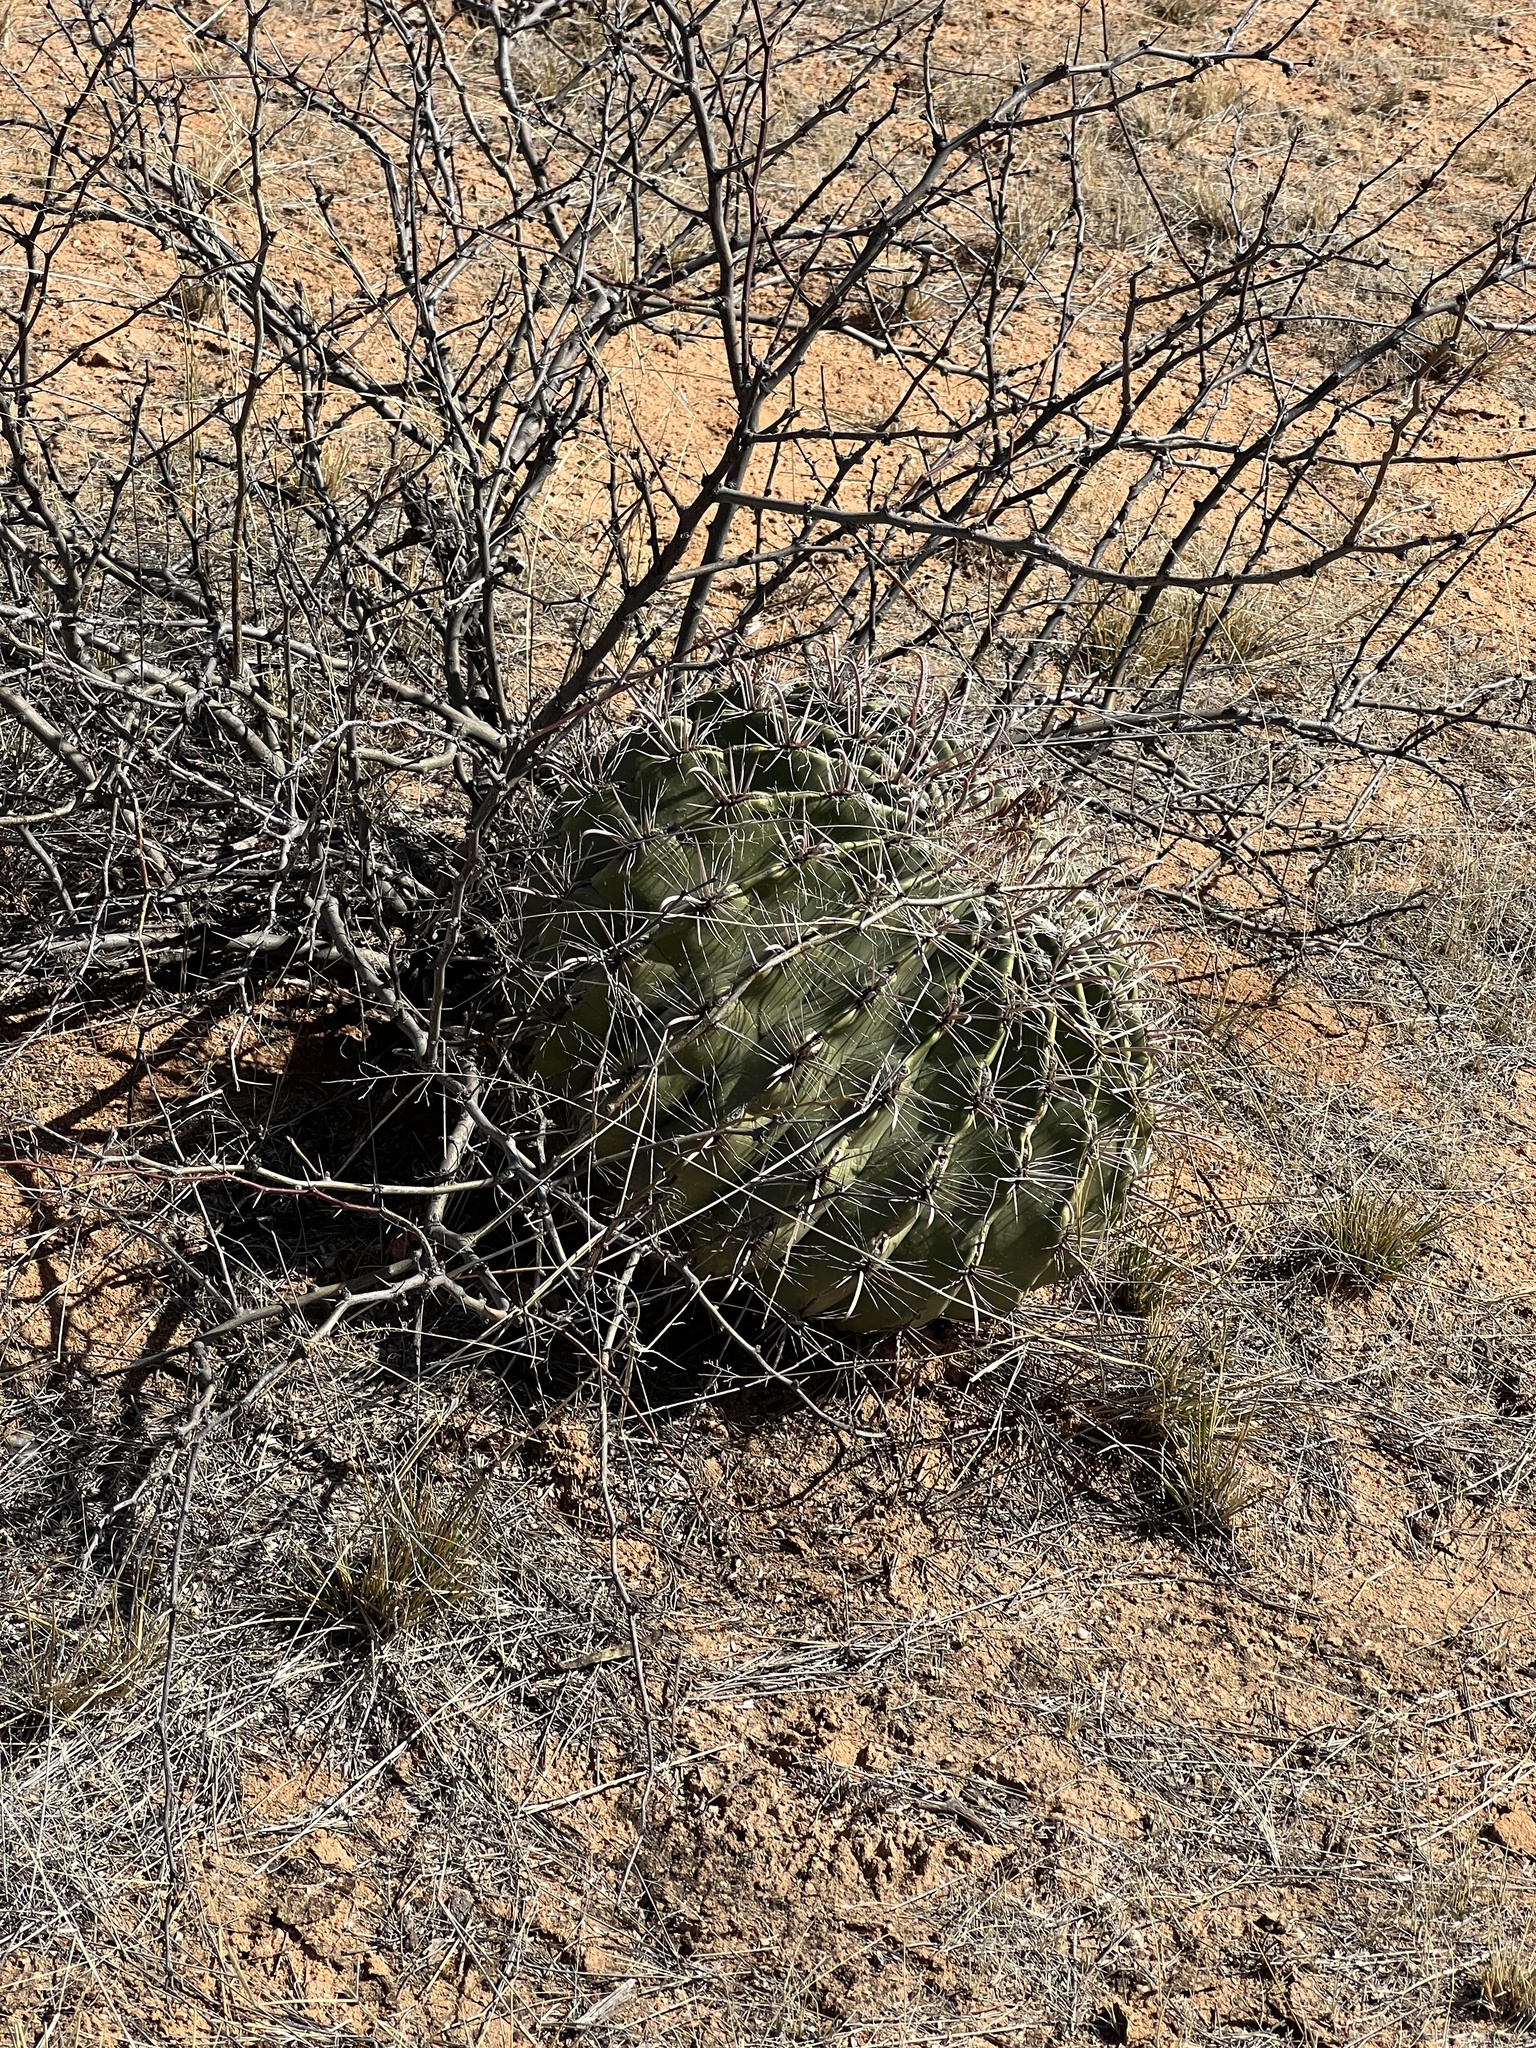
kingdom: Plantae
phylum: Tracheophyta
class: Magnoliopsida
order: Caryophyllales
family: Cactaceae
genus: Ferocactus
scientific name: Ferocactus wislizeni
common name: Candy barrel cactus
